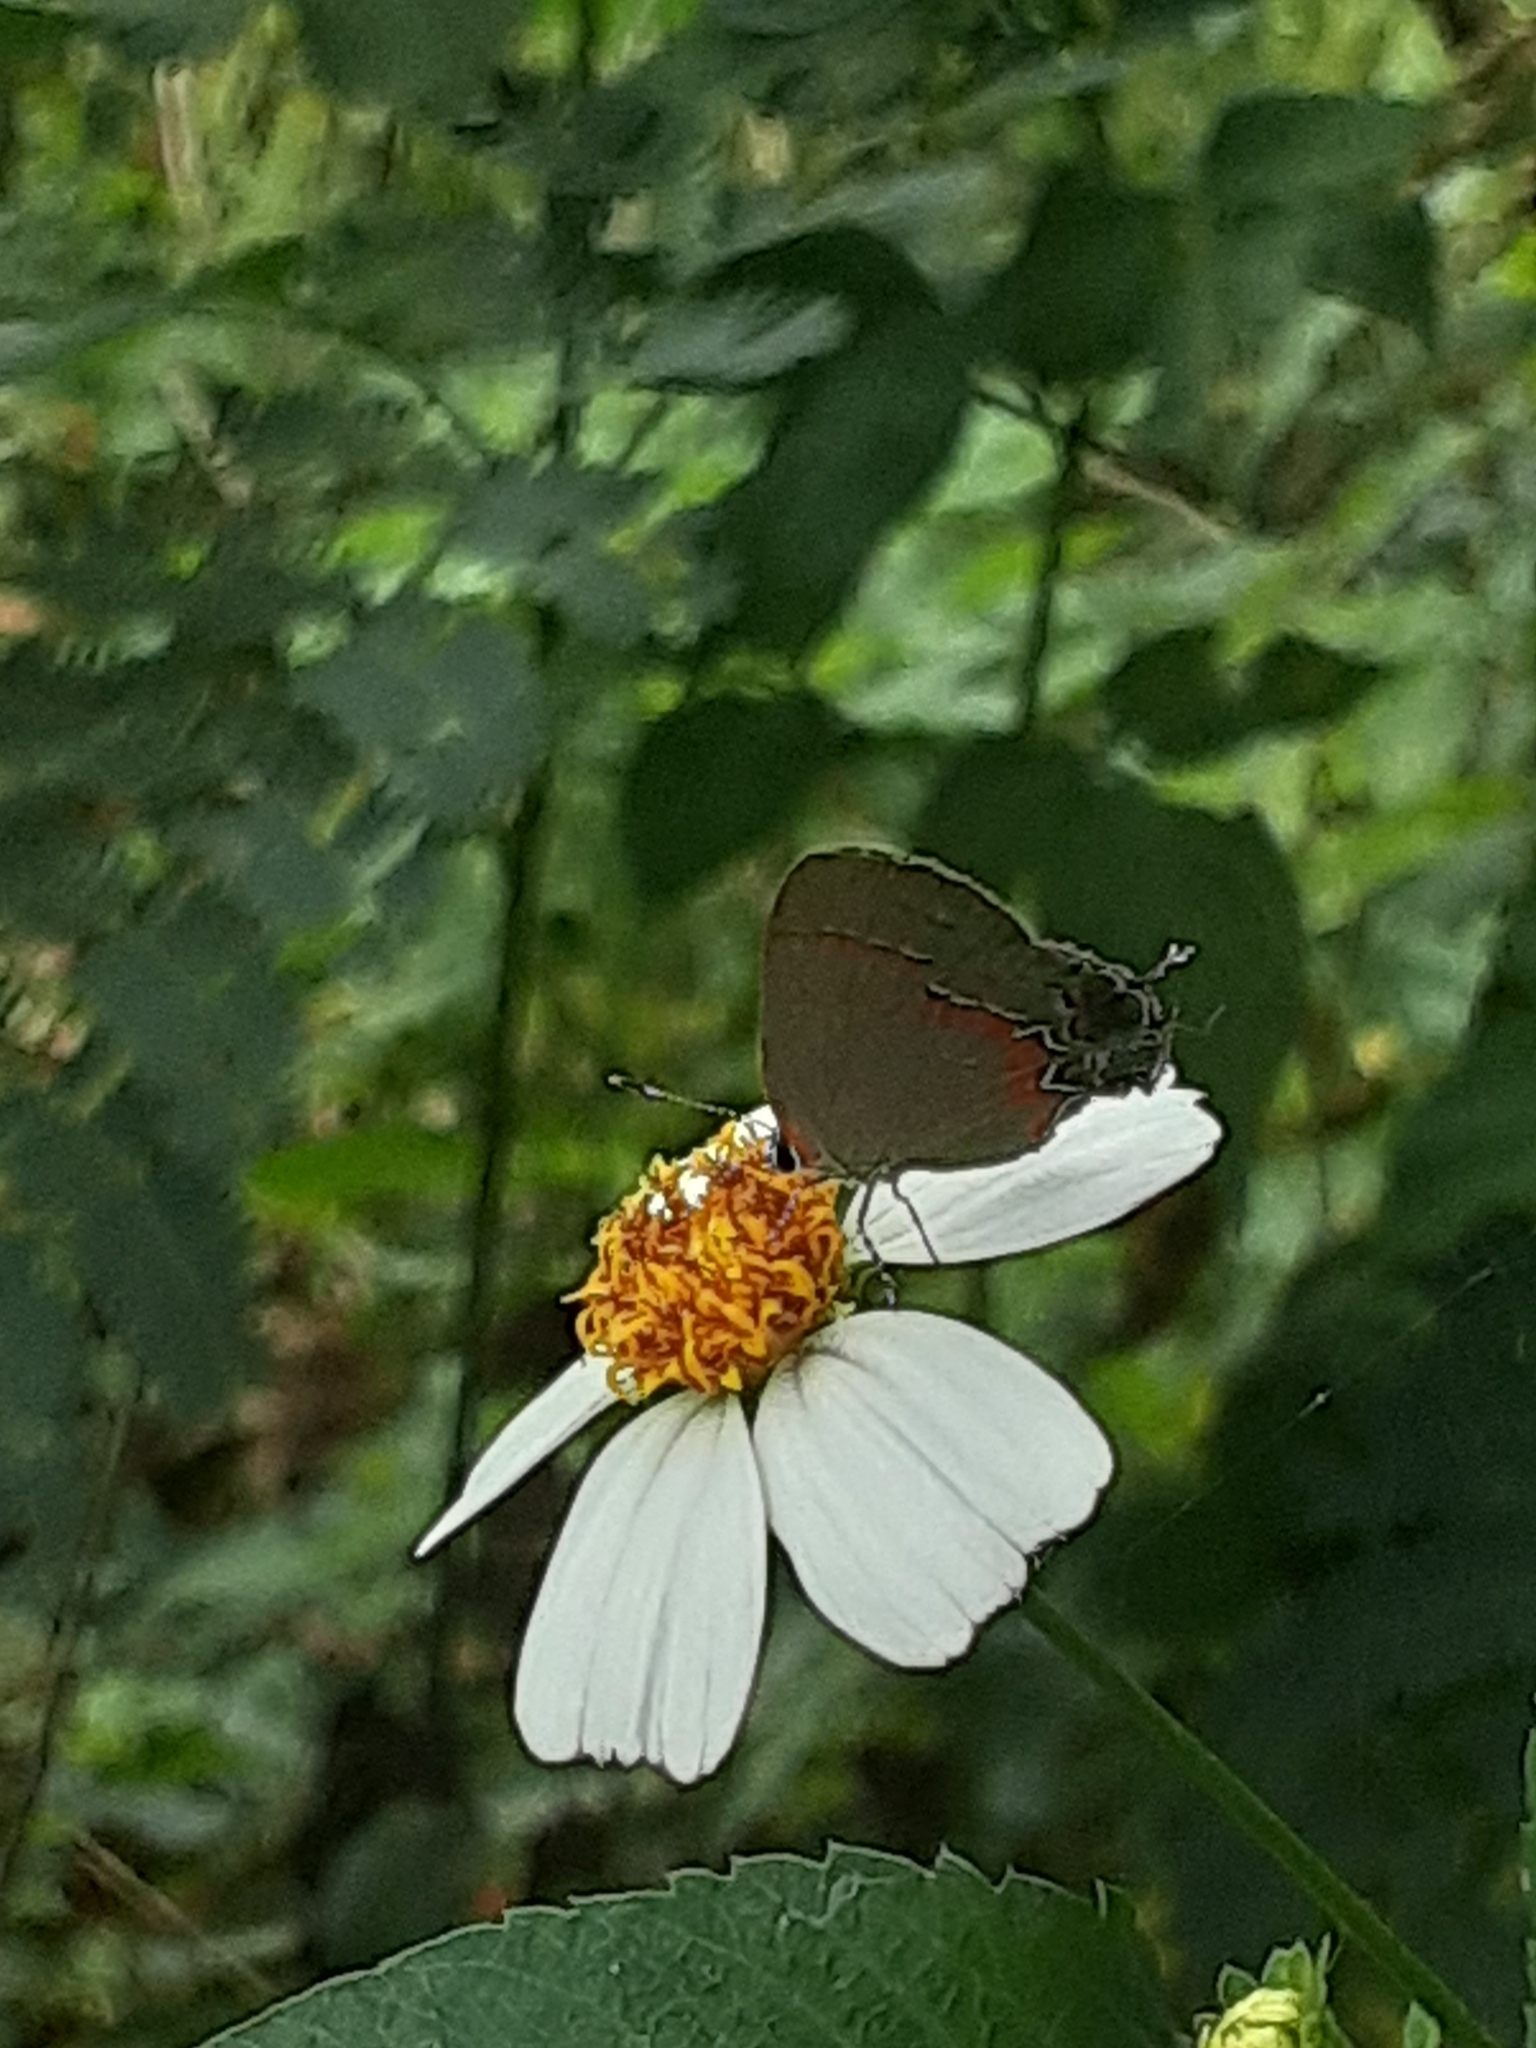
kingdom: Animalia
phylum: Arthropoda
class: Insecta
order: Lepidoptera
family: Lycaenidae
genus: Calycopis
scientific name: Calycopis cecrops
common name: Red-banded hairstreak
